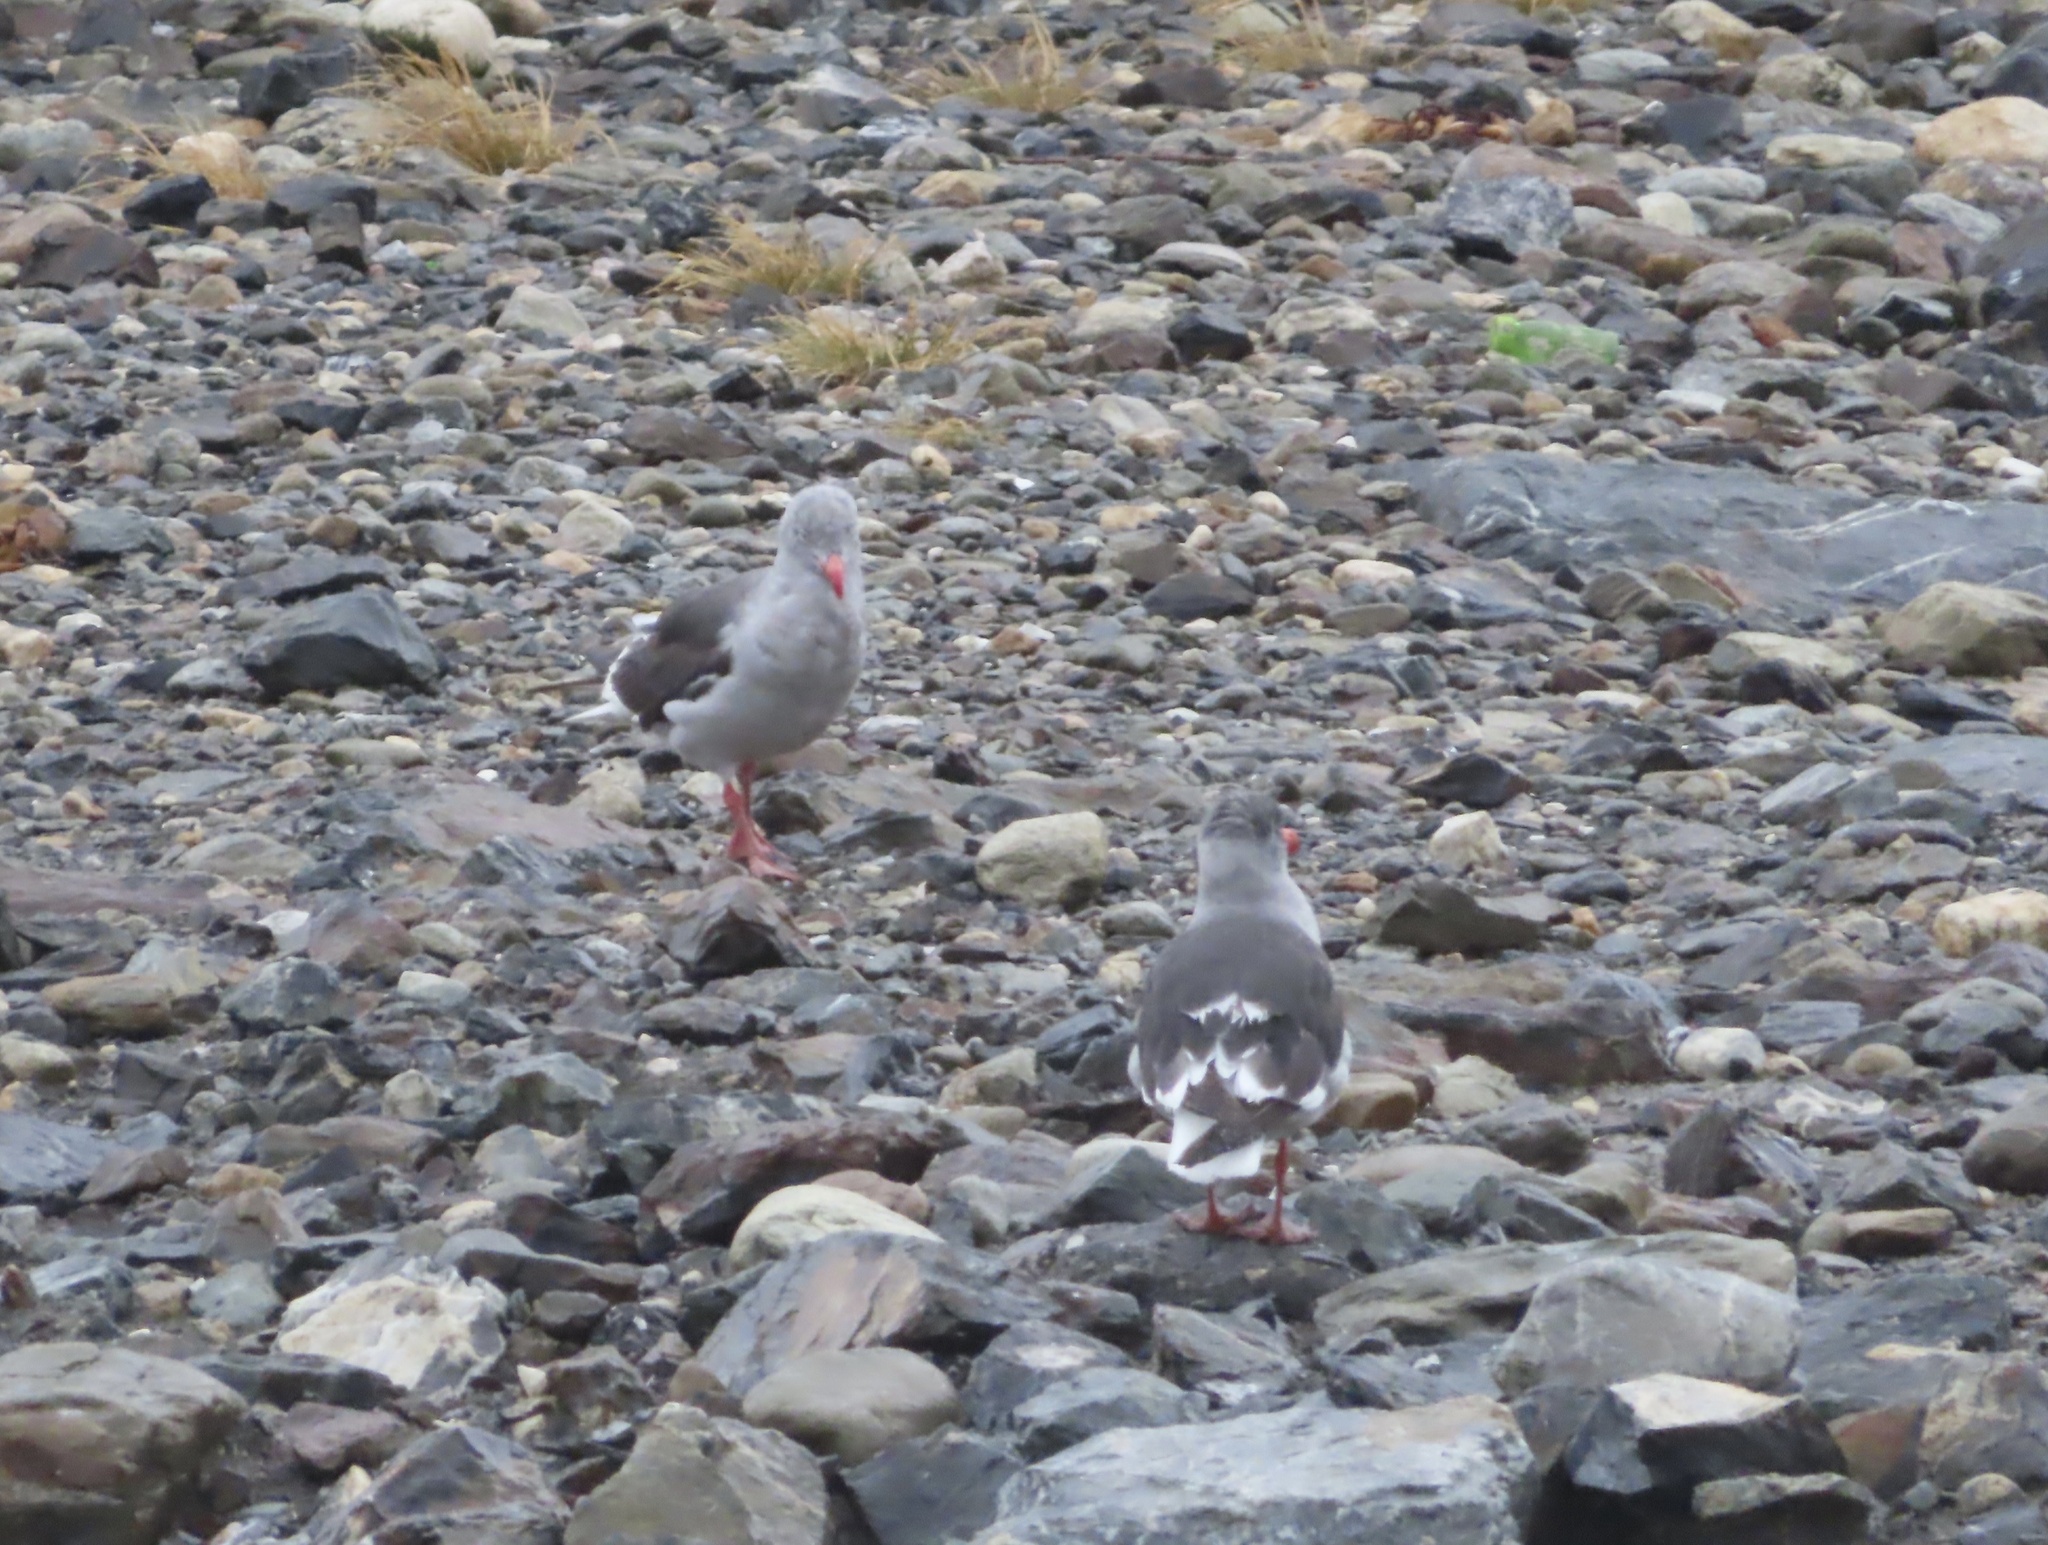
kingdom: Animalia
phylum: Chordata
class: Aves
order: Charadriiformes
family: Laridae
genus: Leucophaeus
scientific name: Leucophaeus scoresbii
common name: Dolphin gull
